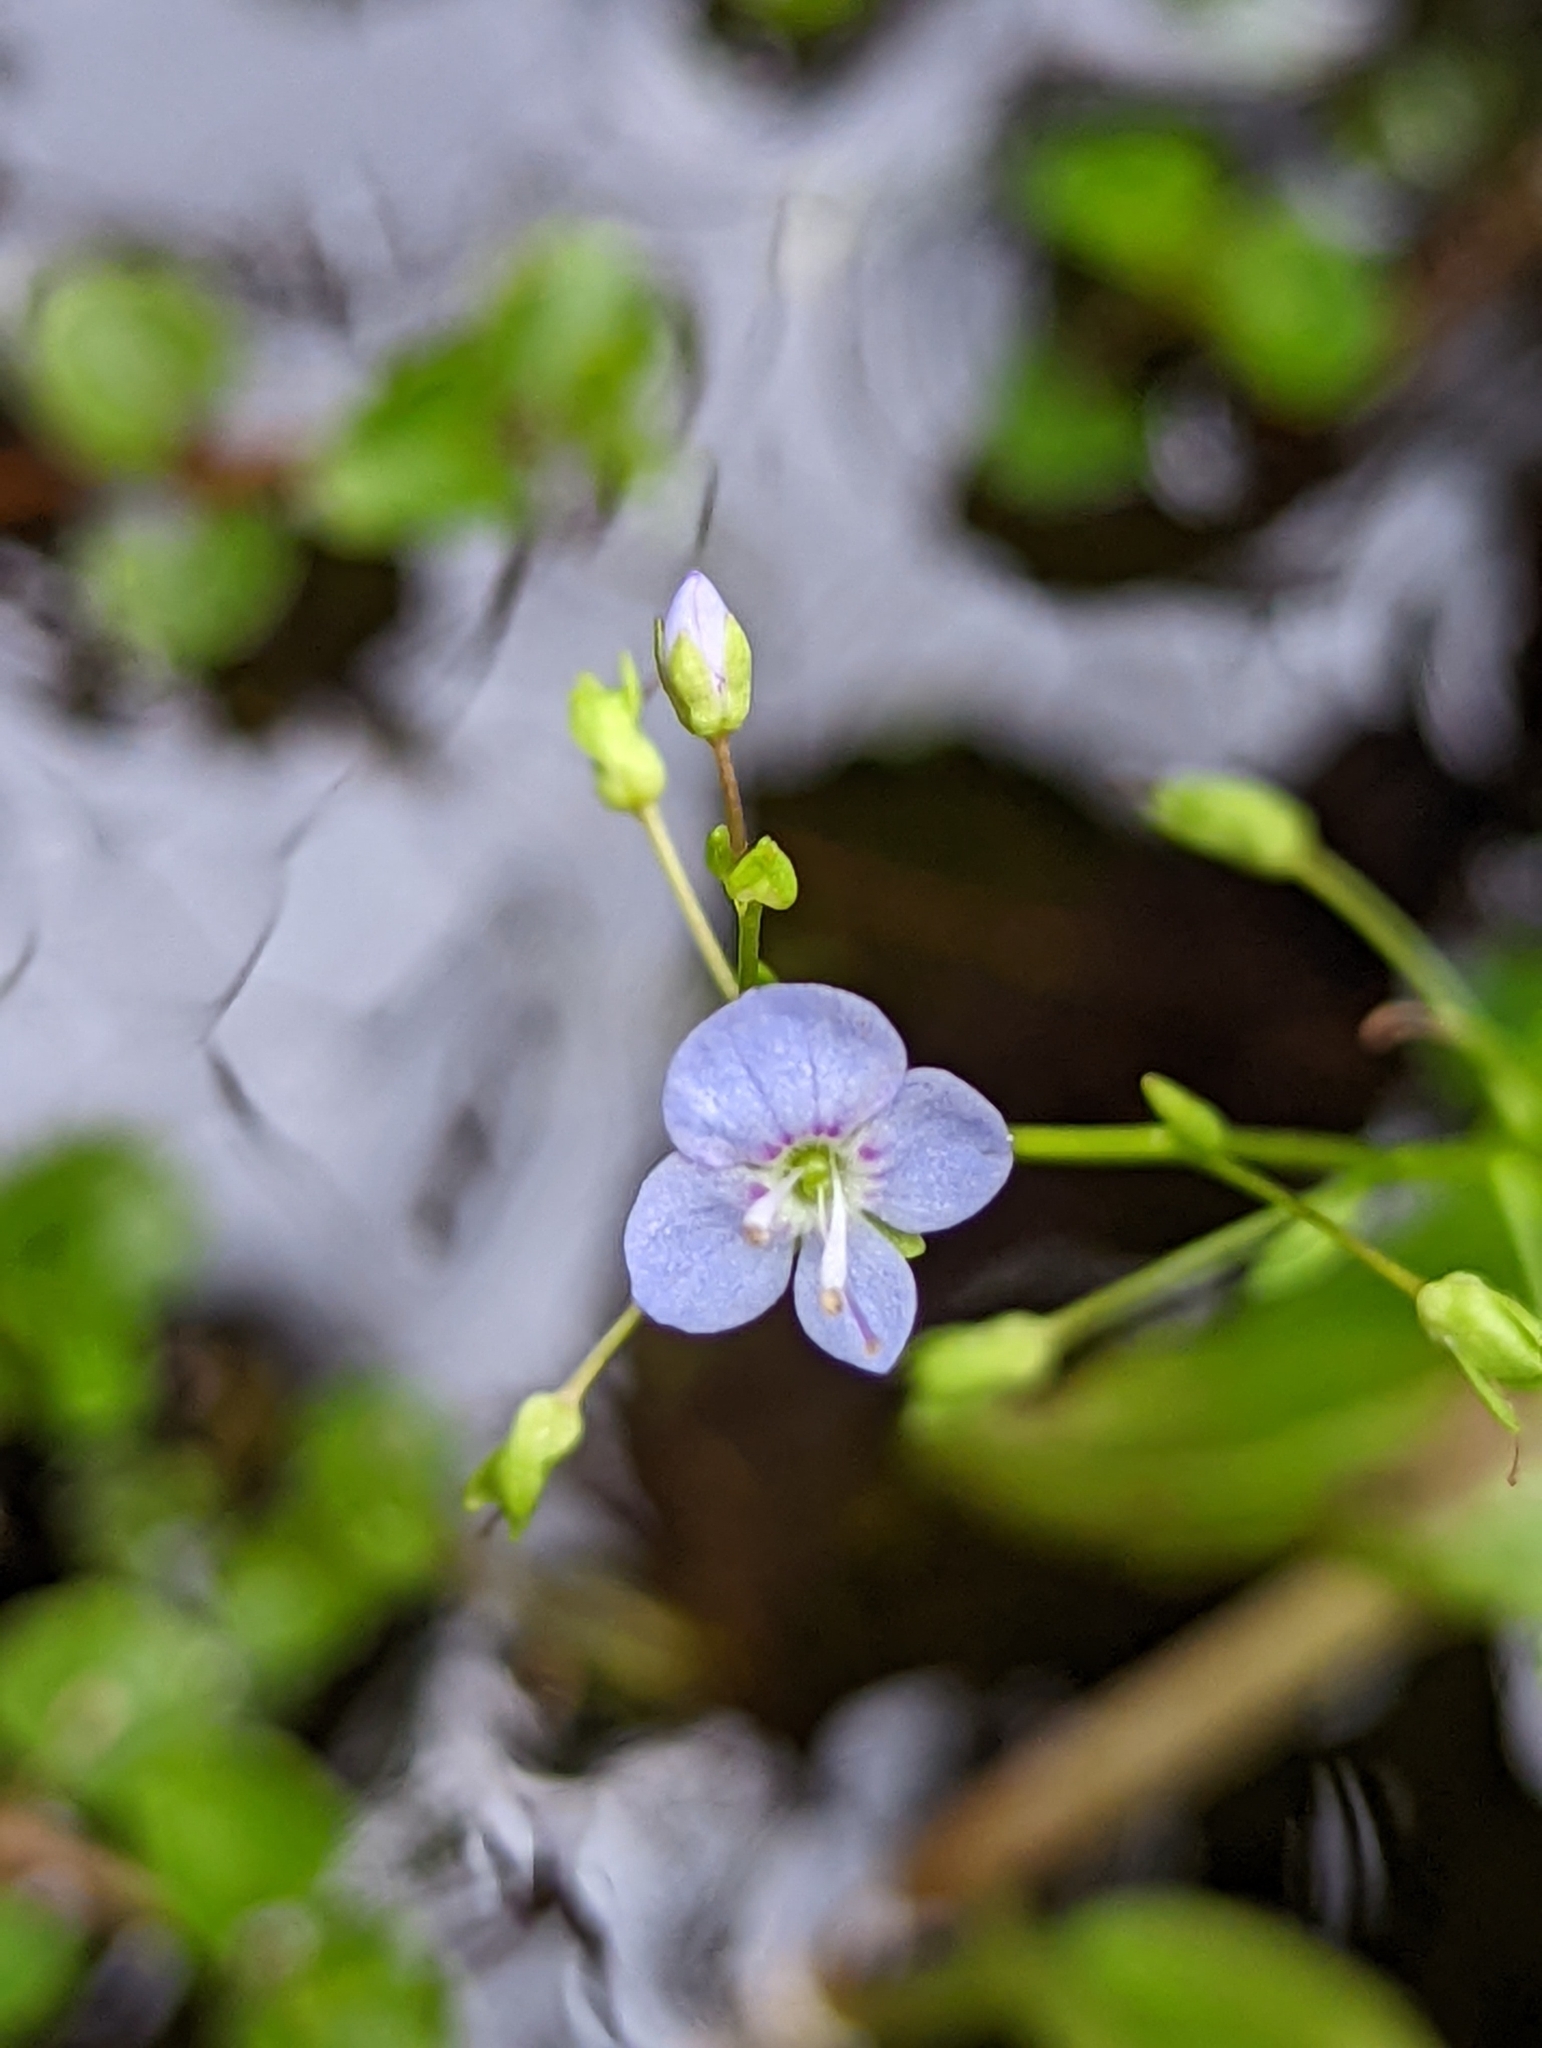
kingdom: Plantae
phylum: Tracheophyta
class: Magnoliopsida
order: Lamiales
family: Plantaginaceae
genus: Veronica
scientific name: Veronica americana
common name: American brooklime
